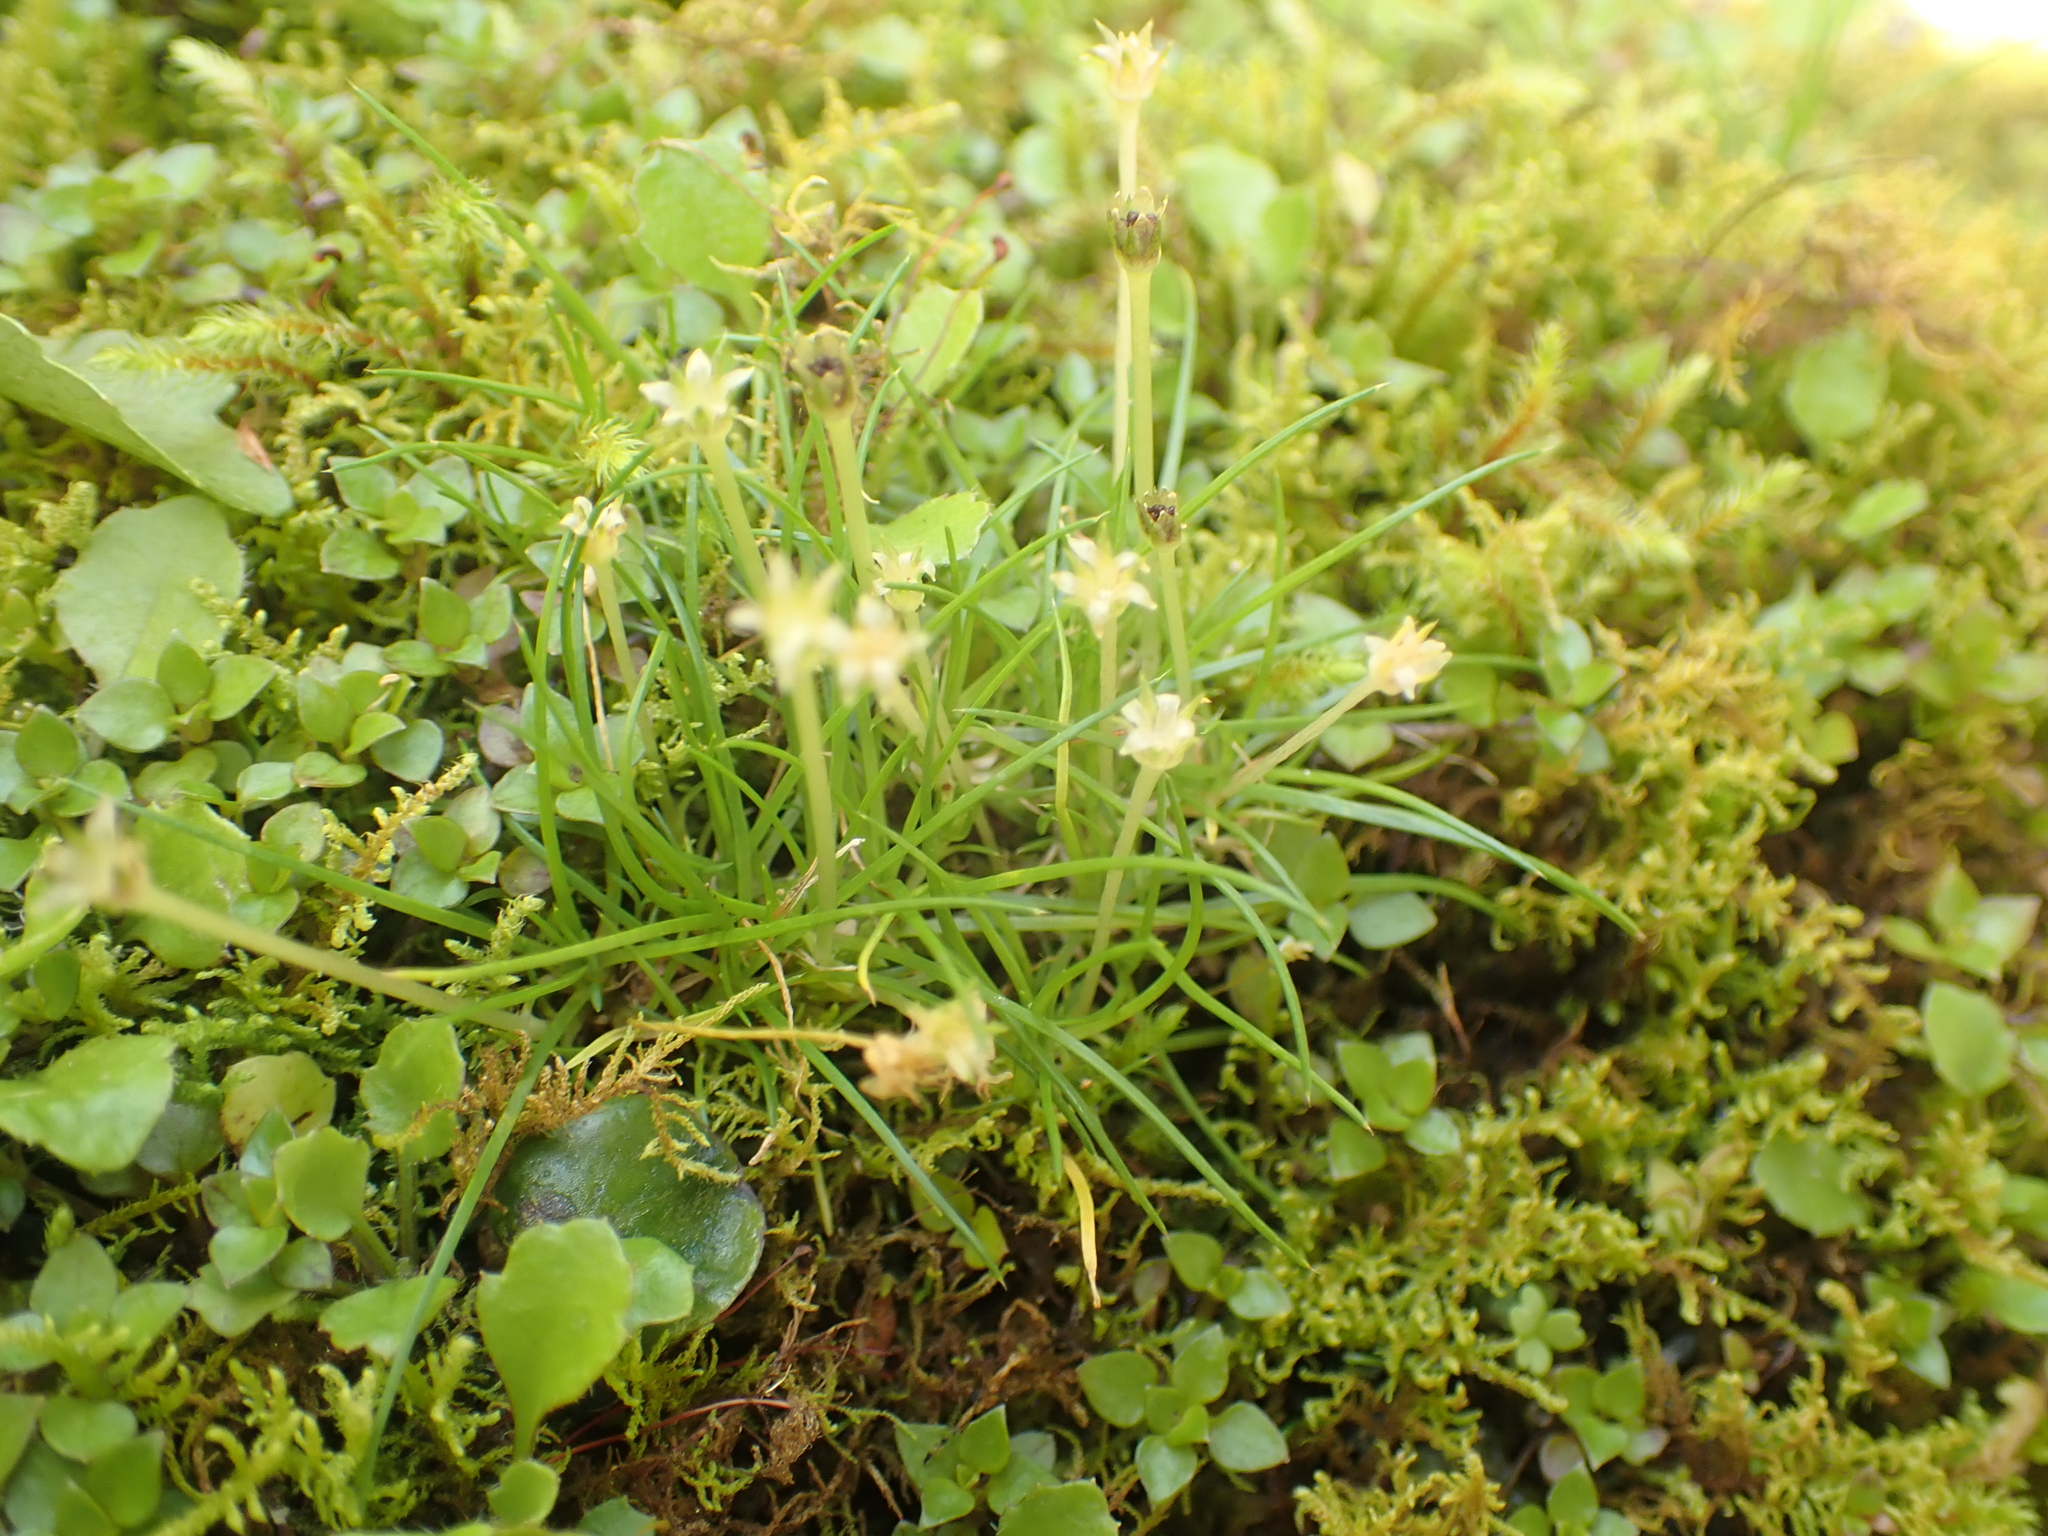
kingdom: Plantae
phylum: Tracheophyta
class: Magnoliopsida
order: Caryophyllales
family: Caryophyllaceae
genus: Colobanthus
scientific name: Colobanthus apetalus
